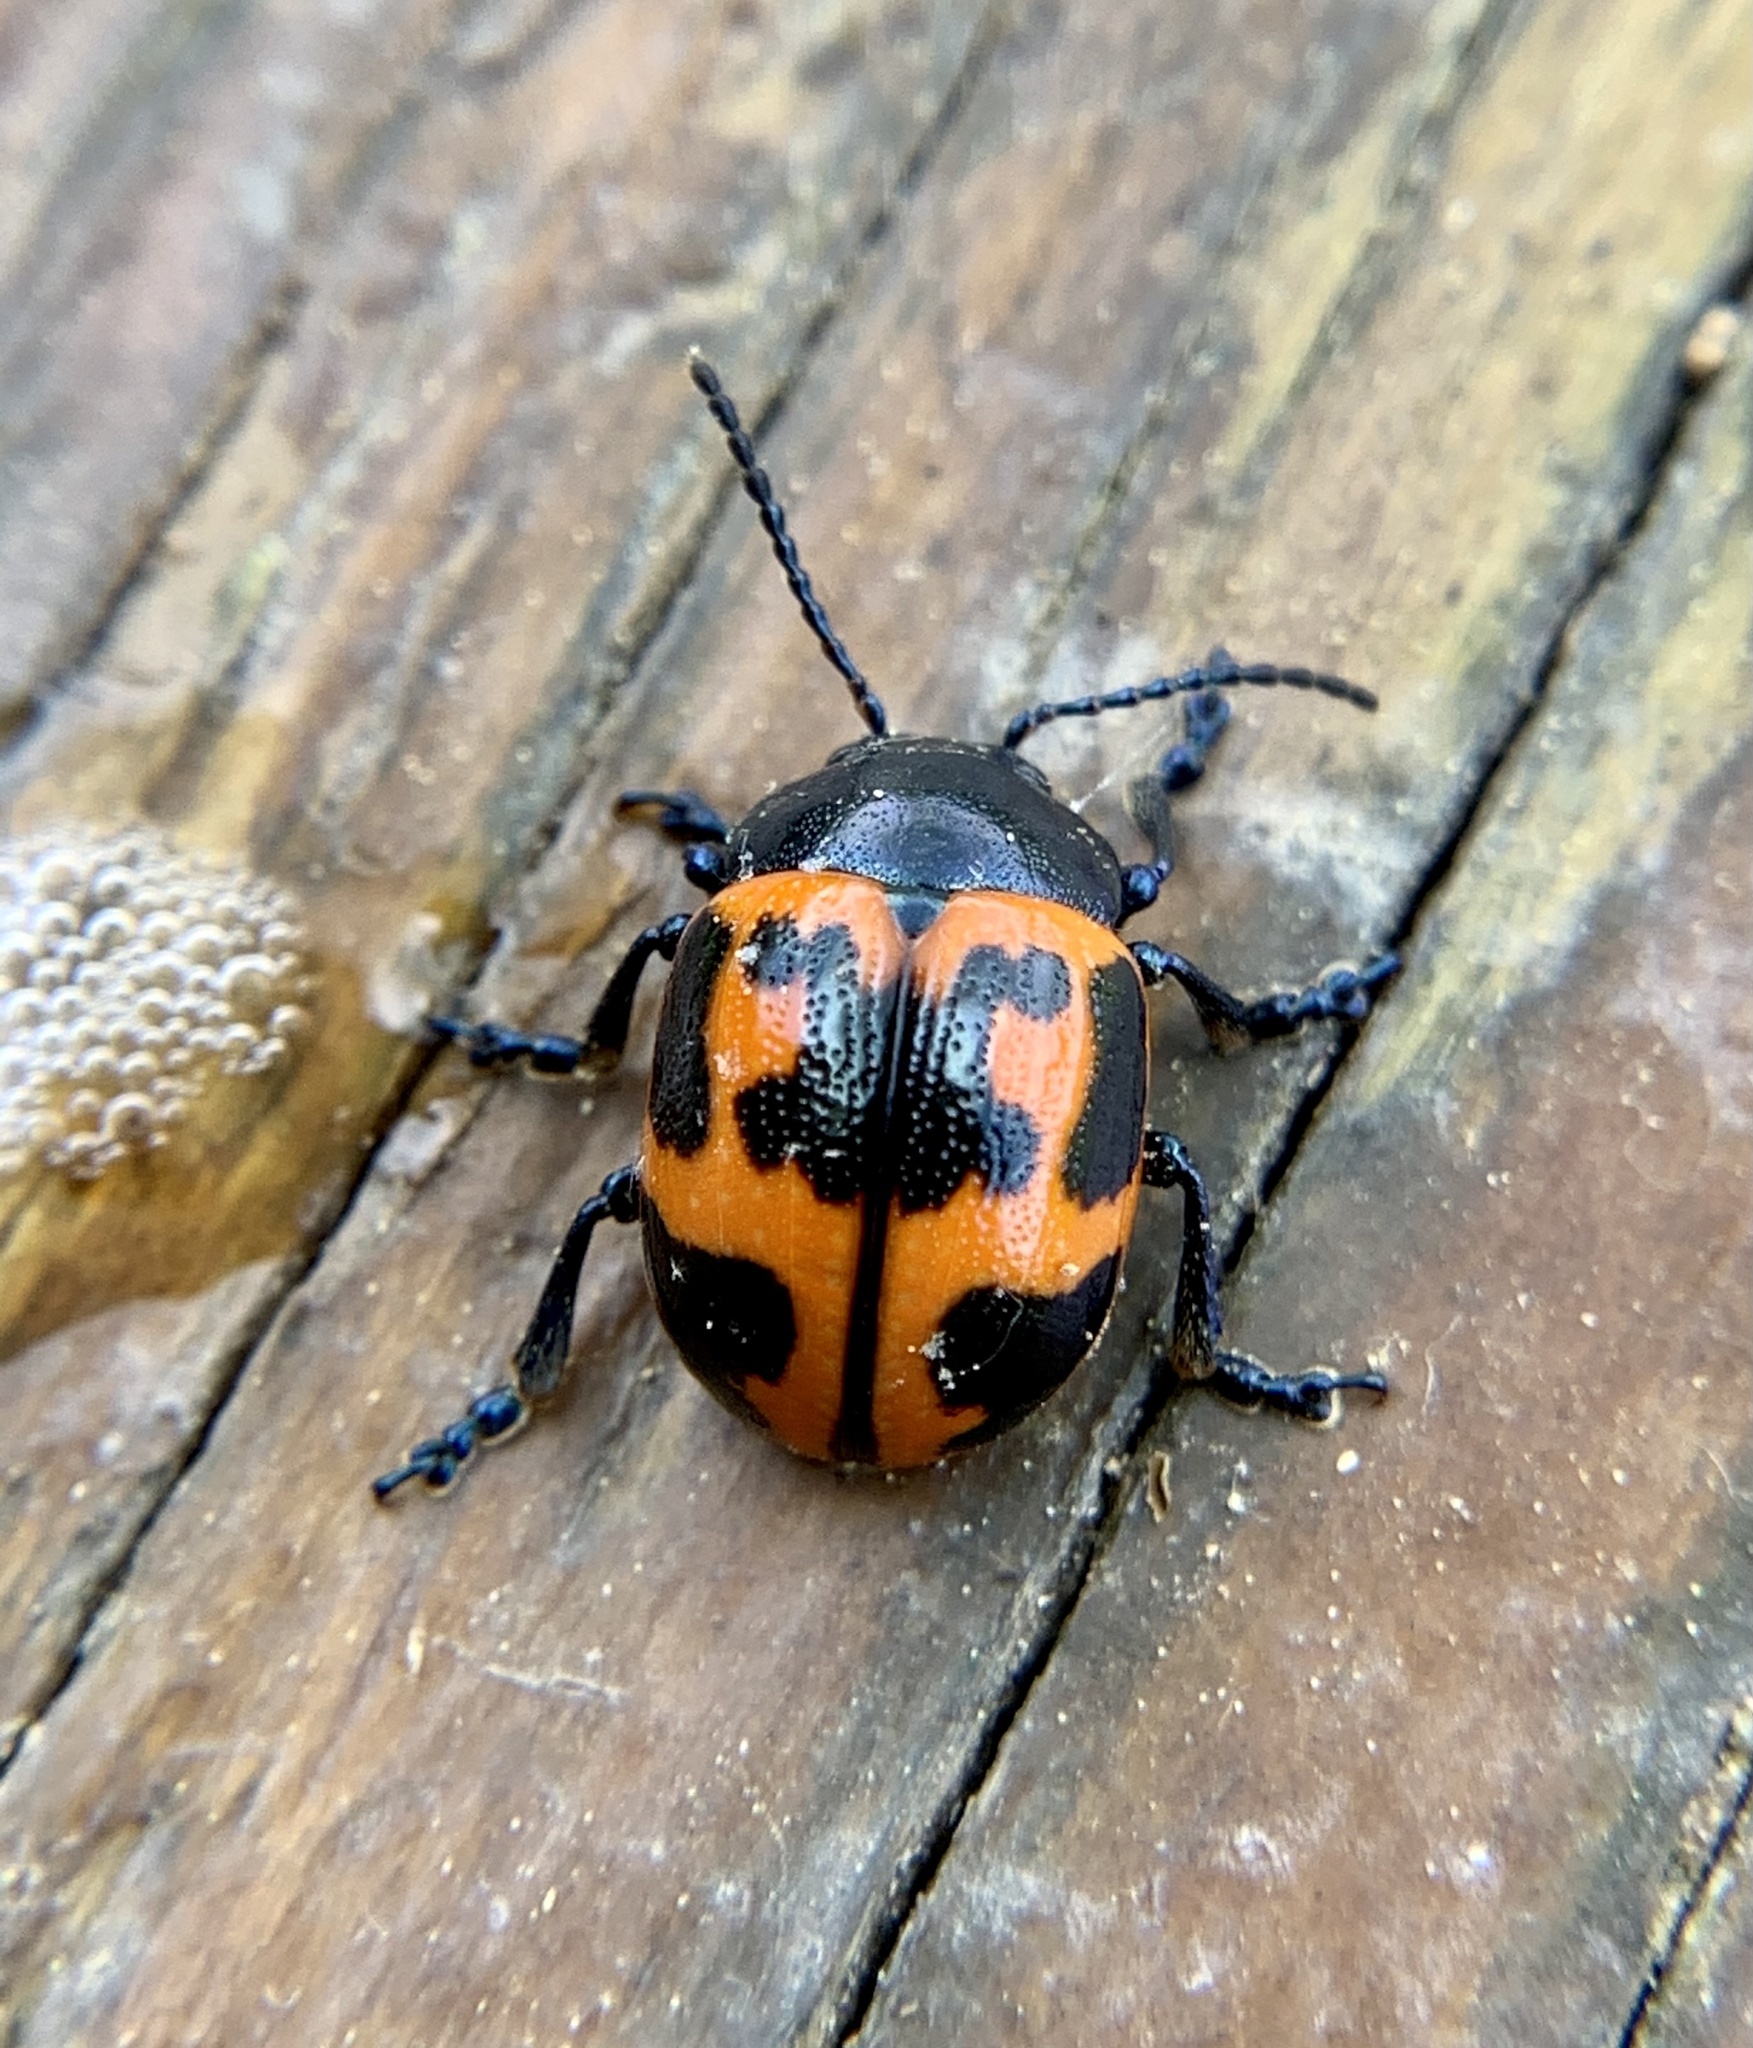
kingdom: Animalia
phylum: Arthropoda
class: Insecta
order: Coleoptera
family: Chrysomelidae
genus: Labidomera
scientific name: Labidomera clivicollis
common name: Swamp milkweed leaf beetle
